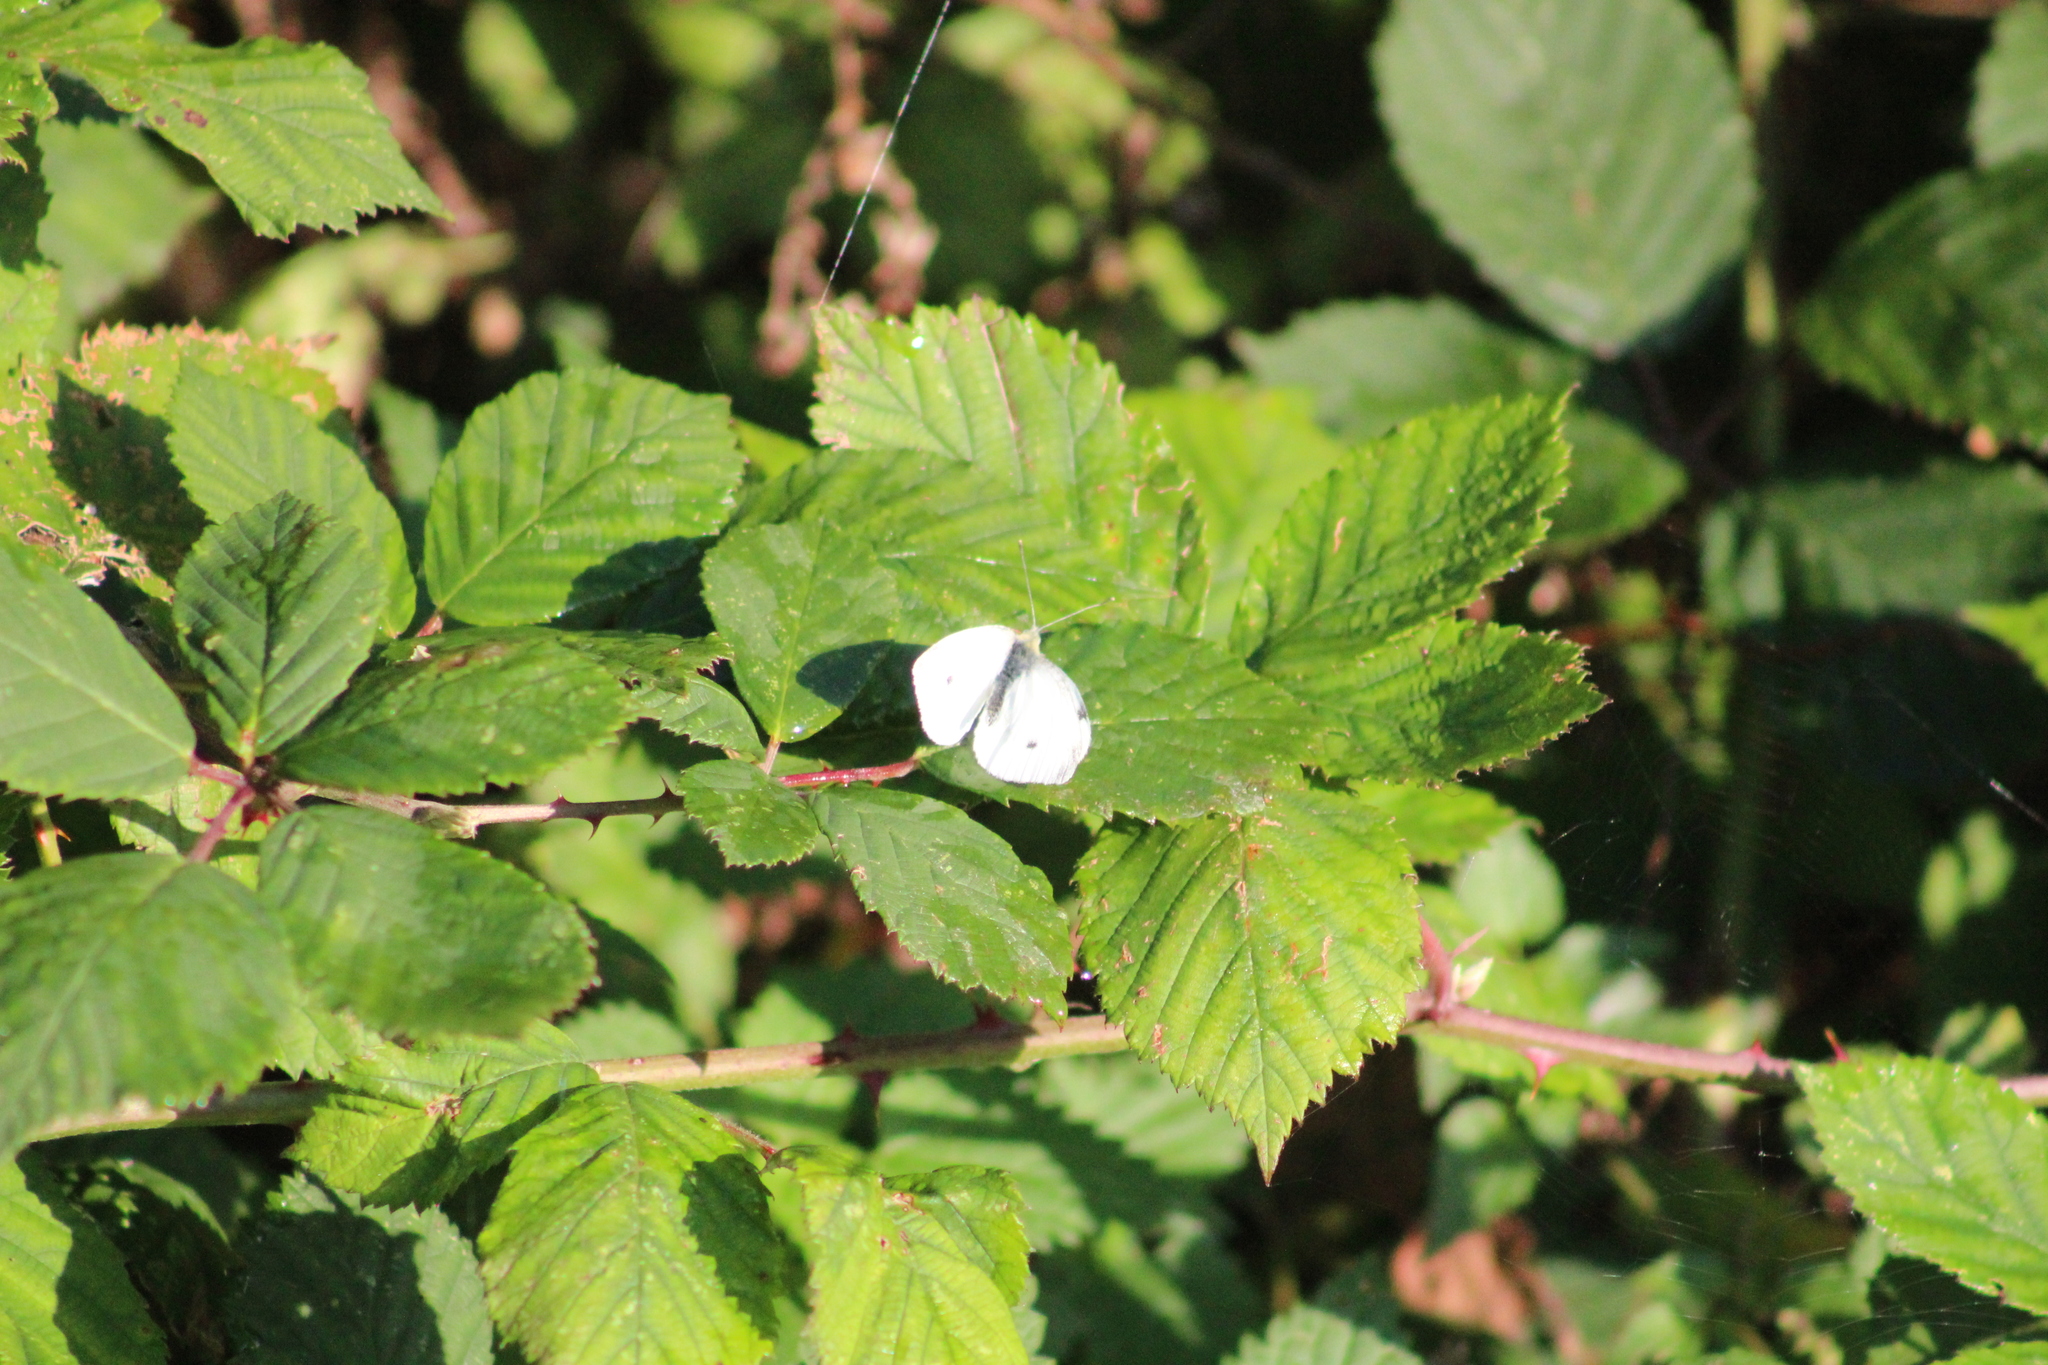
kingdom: Animalia
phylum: Arthropoda
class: Insecta
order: Lepidoptera
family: Pieridae
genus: Pieris
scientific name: Pieris rapae
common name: Small white
